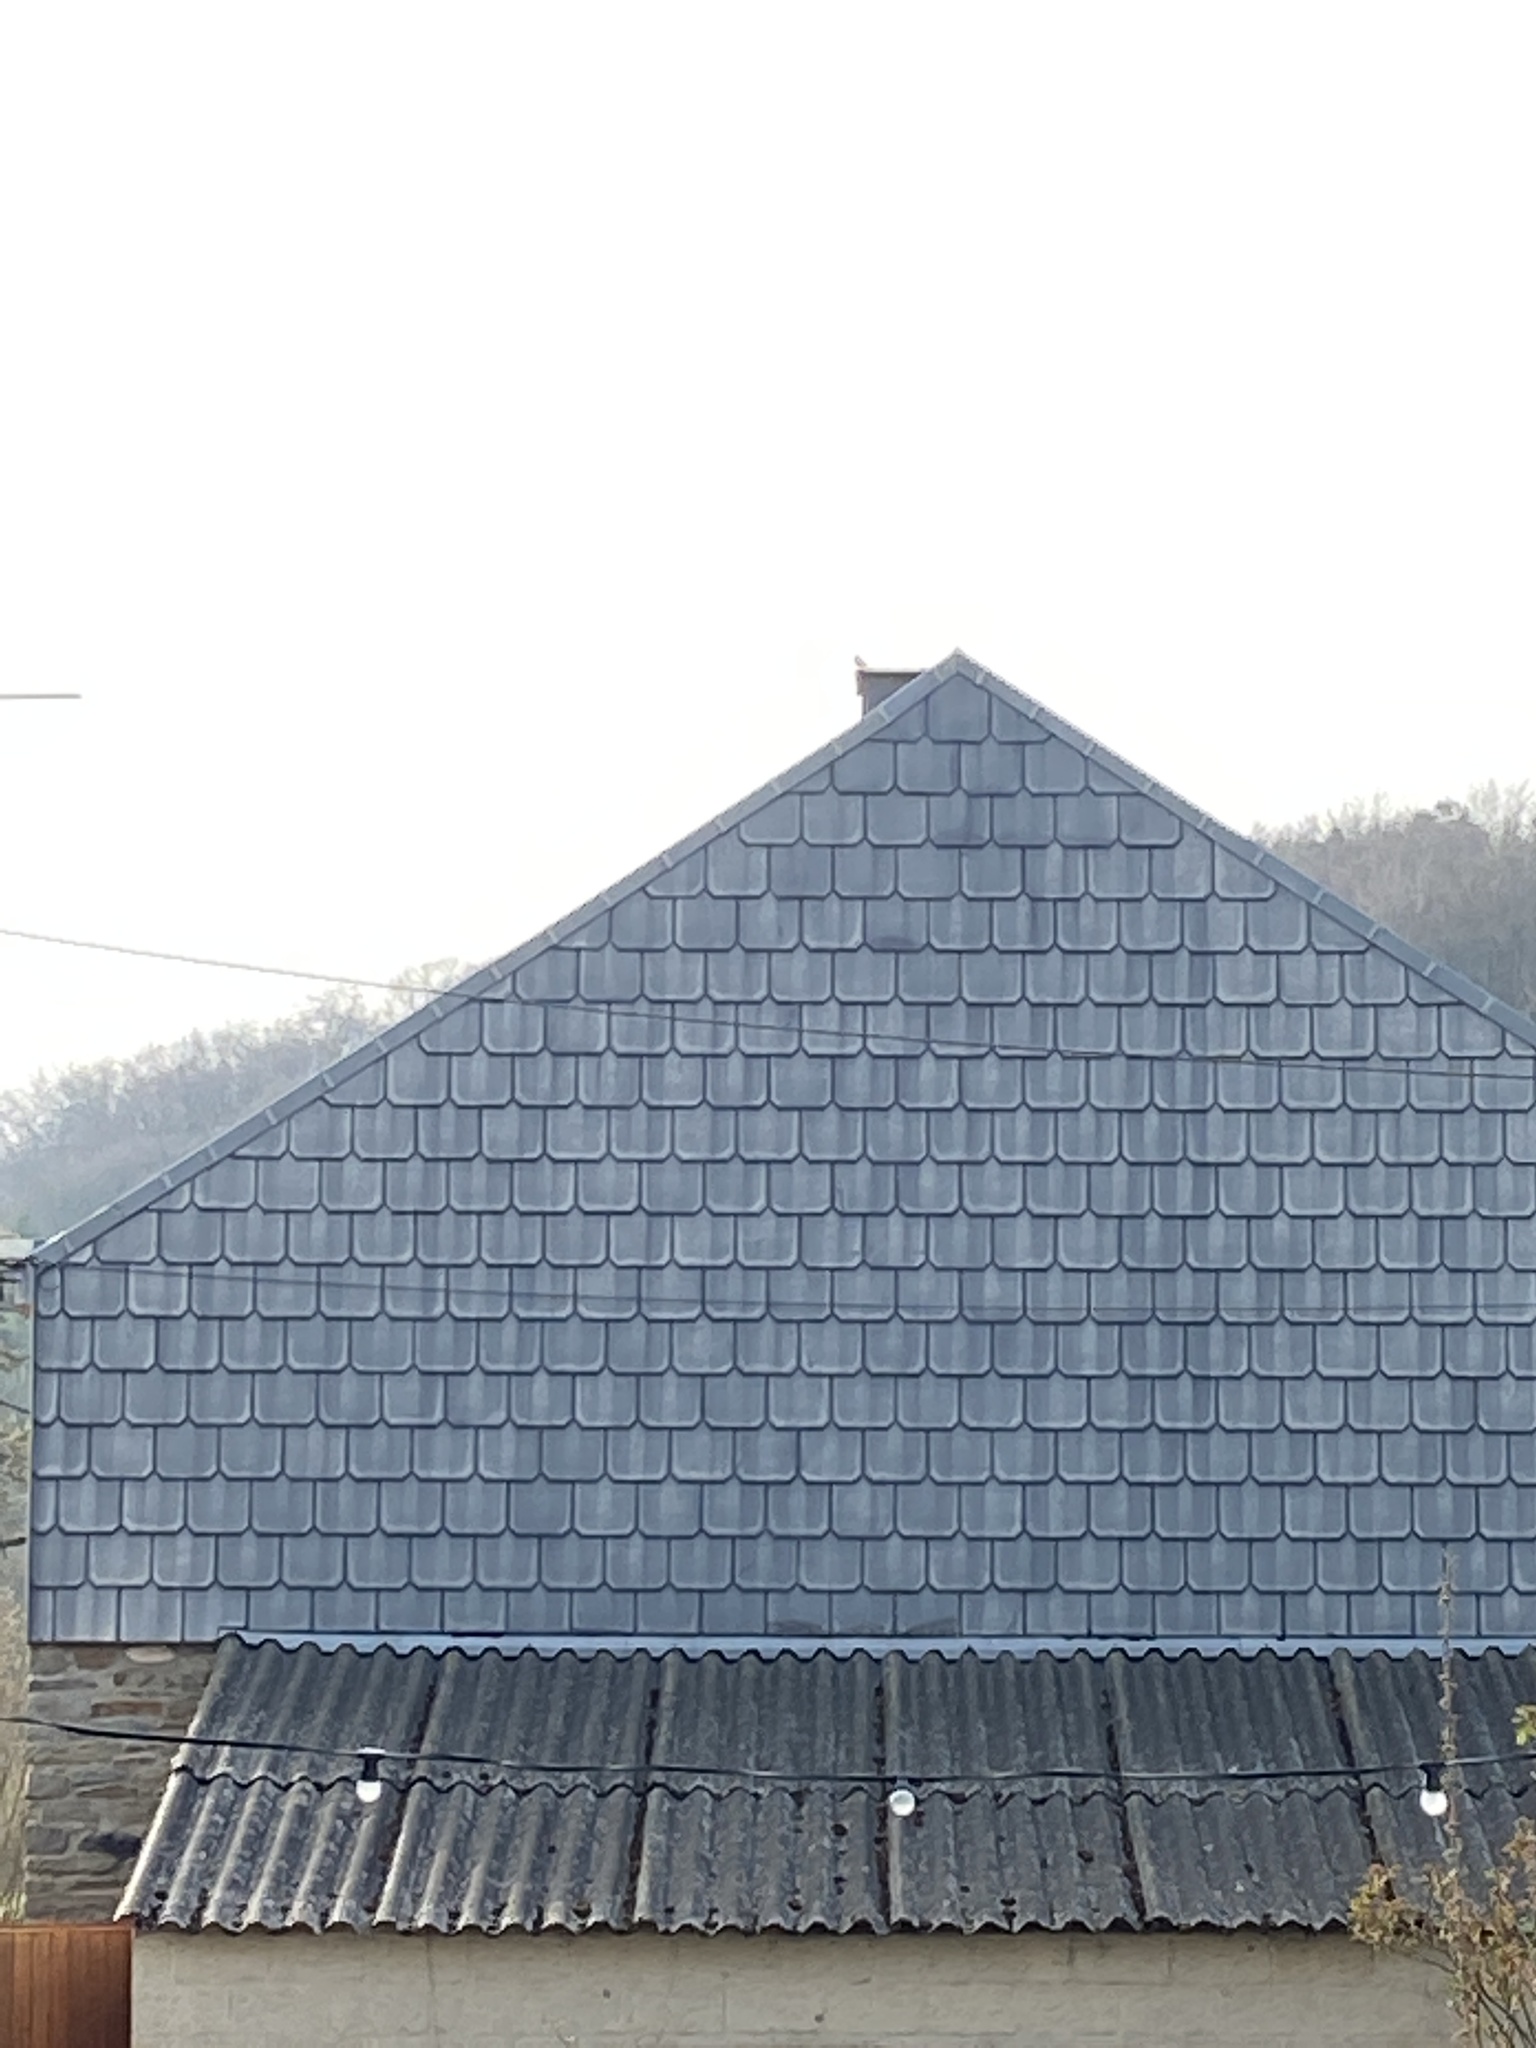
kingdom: Animalia
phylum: Chordata
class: Aves
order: Passeriformes
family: Muscicapidae
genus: Phoenicurus
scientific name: Phoenicurus ochruros
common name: Black redstart
